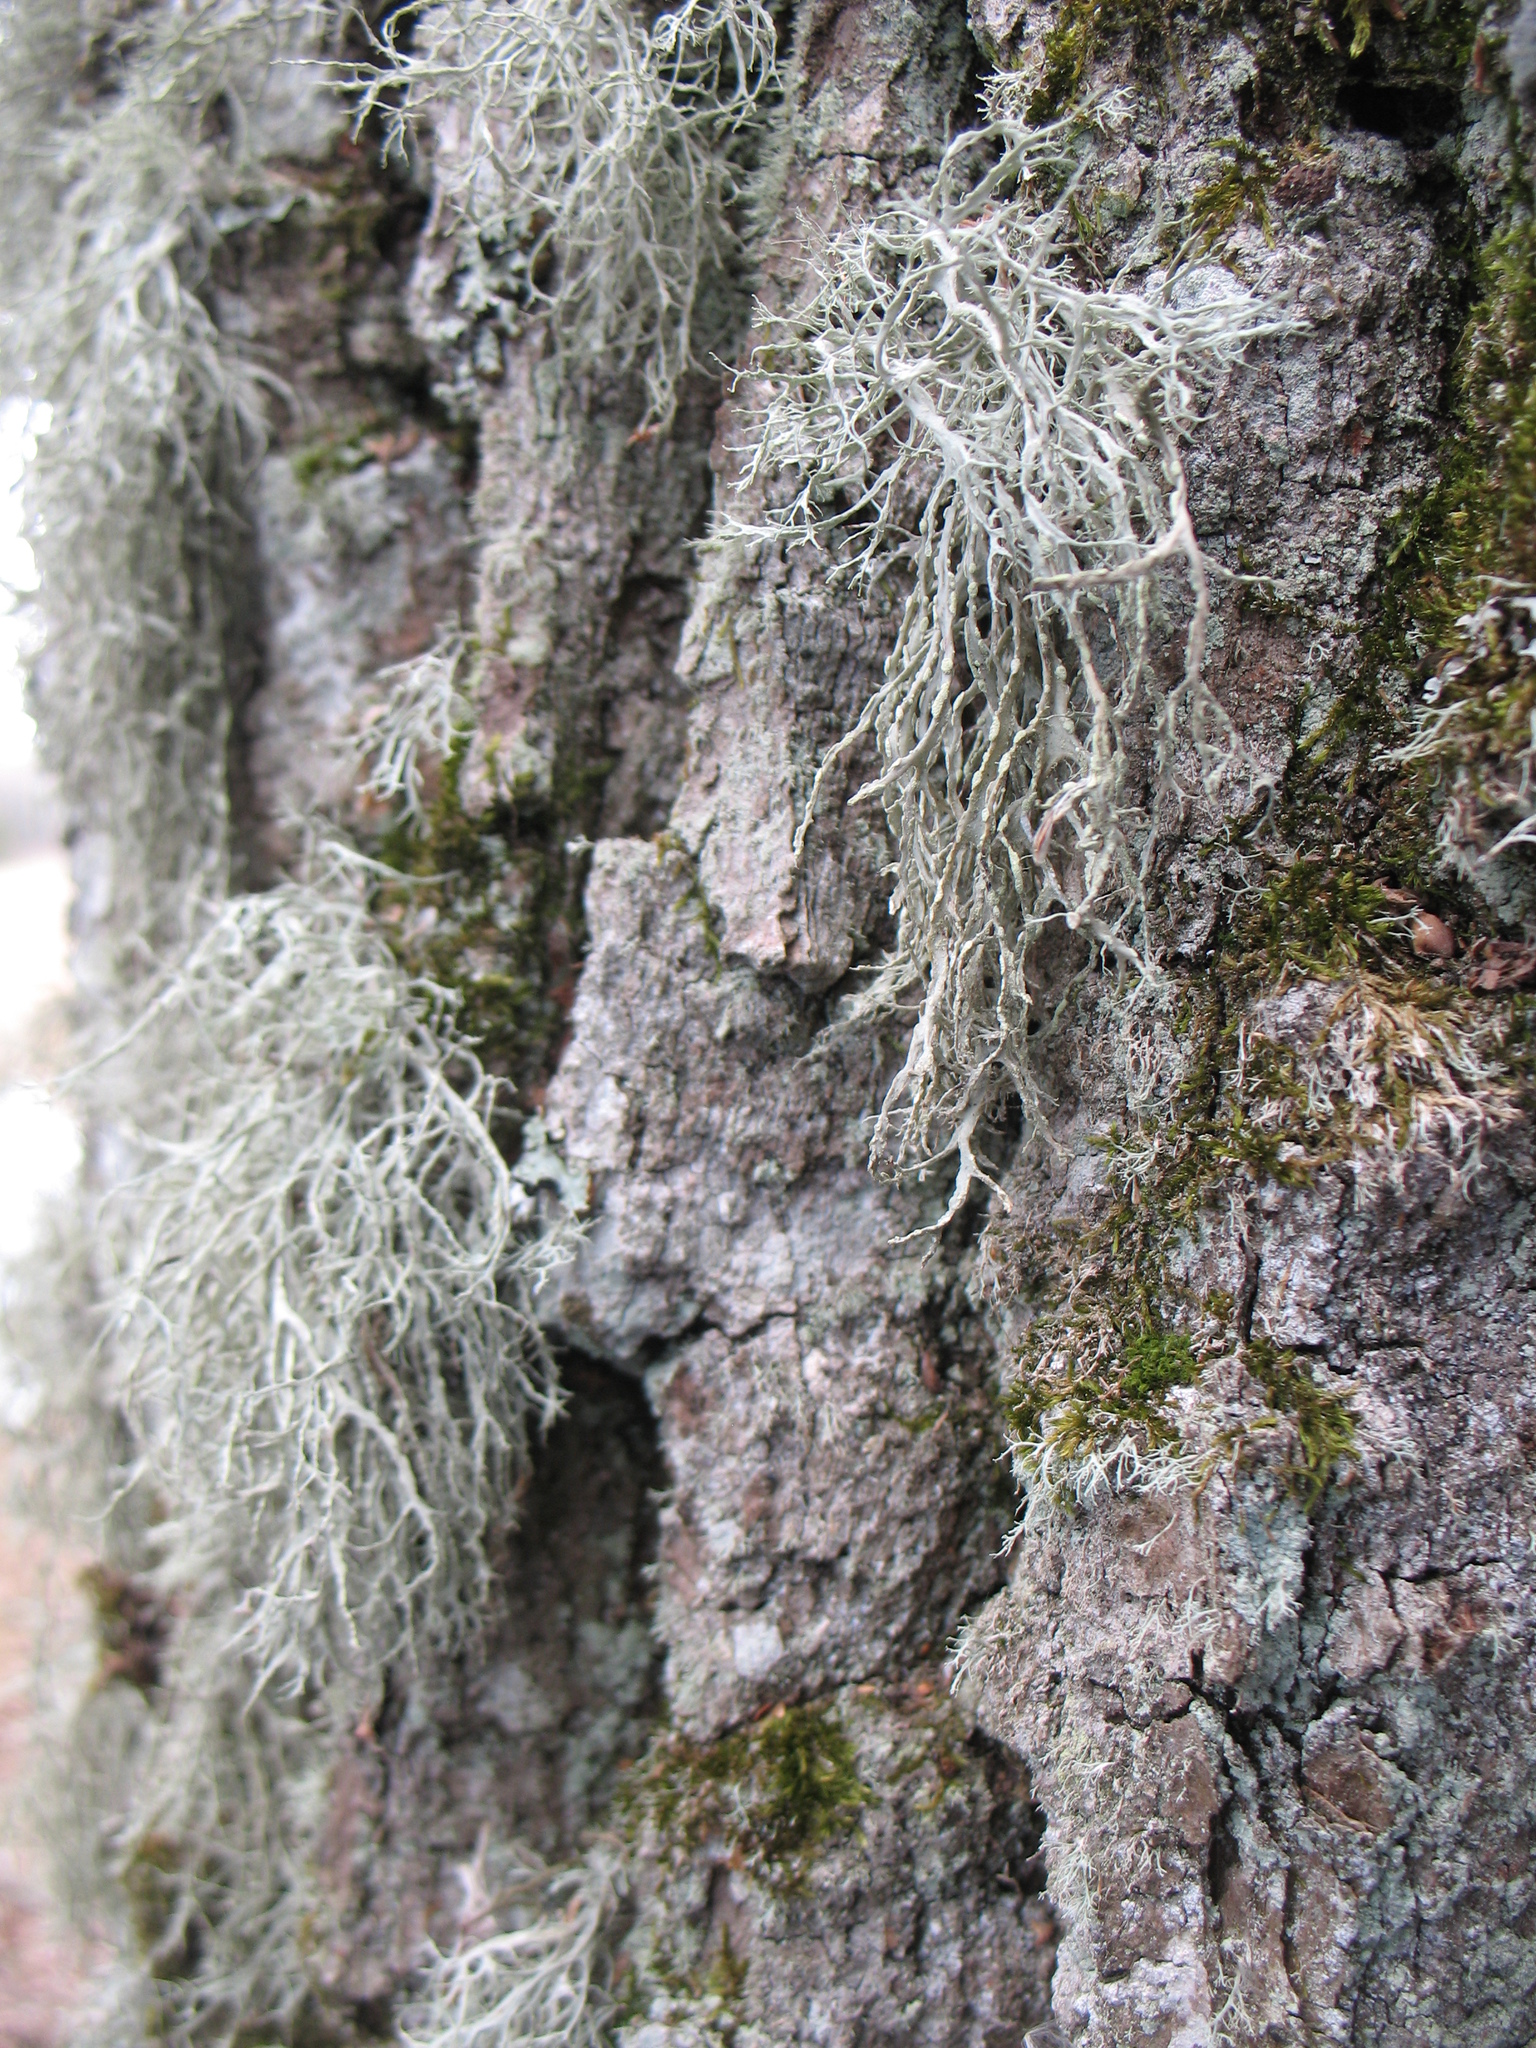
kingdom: Fungi
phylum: Ascomycota
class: Lecanoromycetes
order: Lecanorales
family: Ramalinaceae
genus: Ramalina
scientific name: Ramalina farinacea
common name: Farinose cartilage lichen
